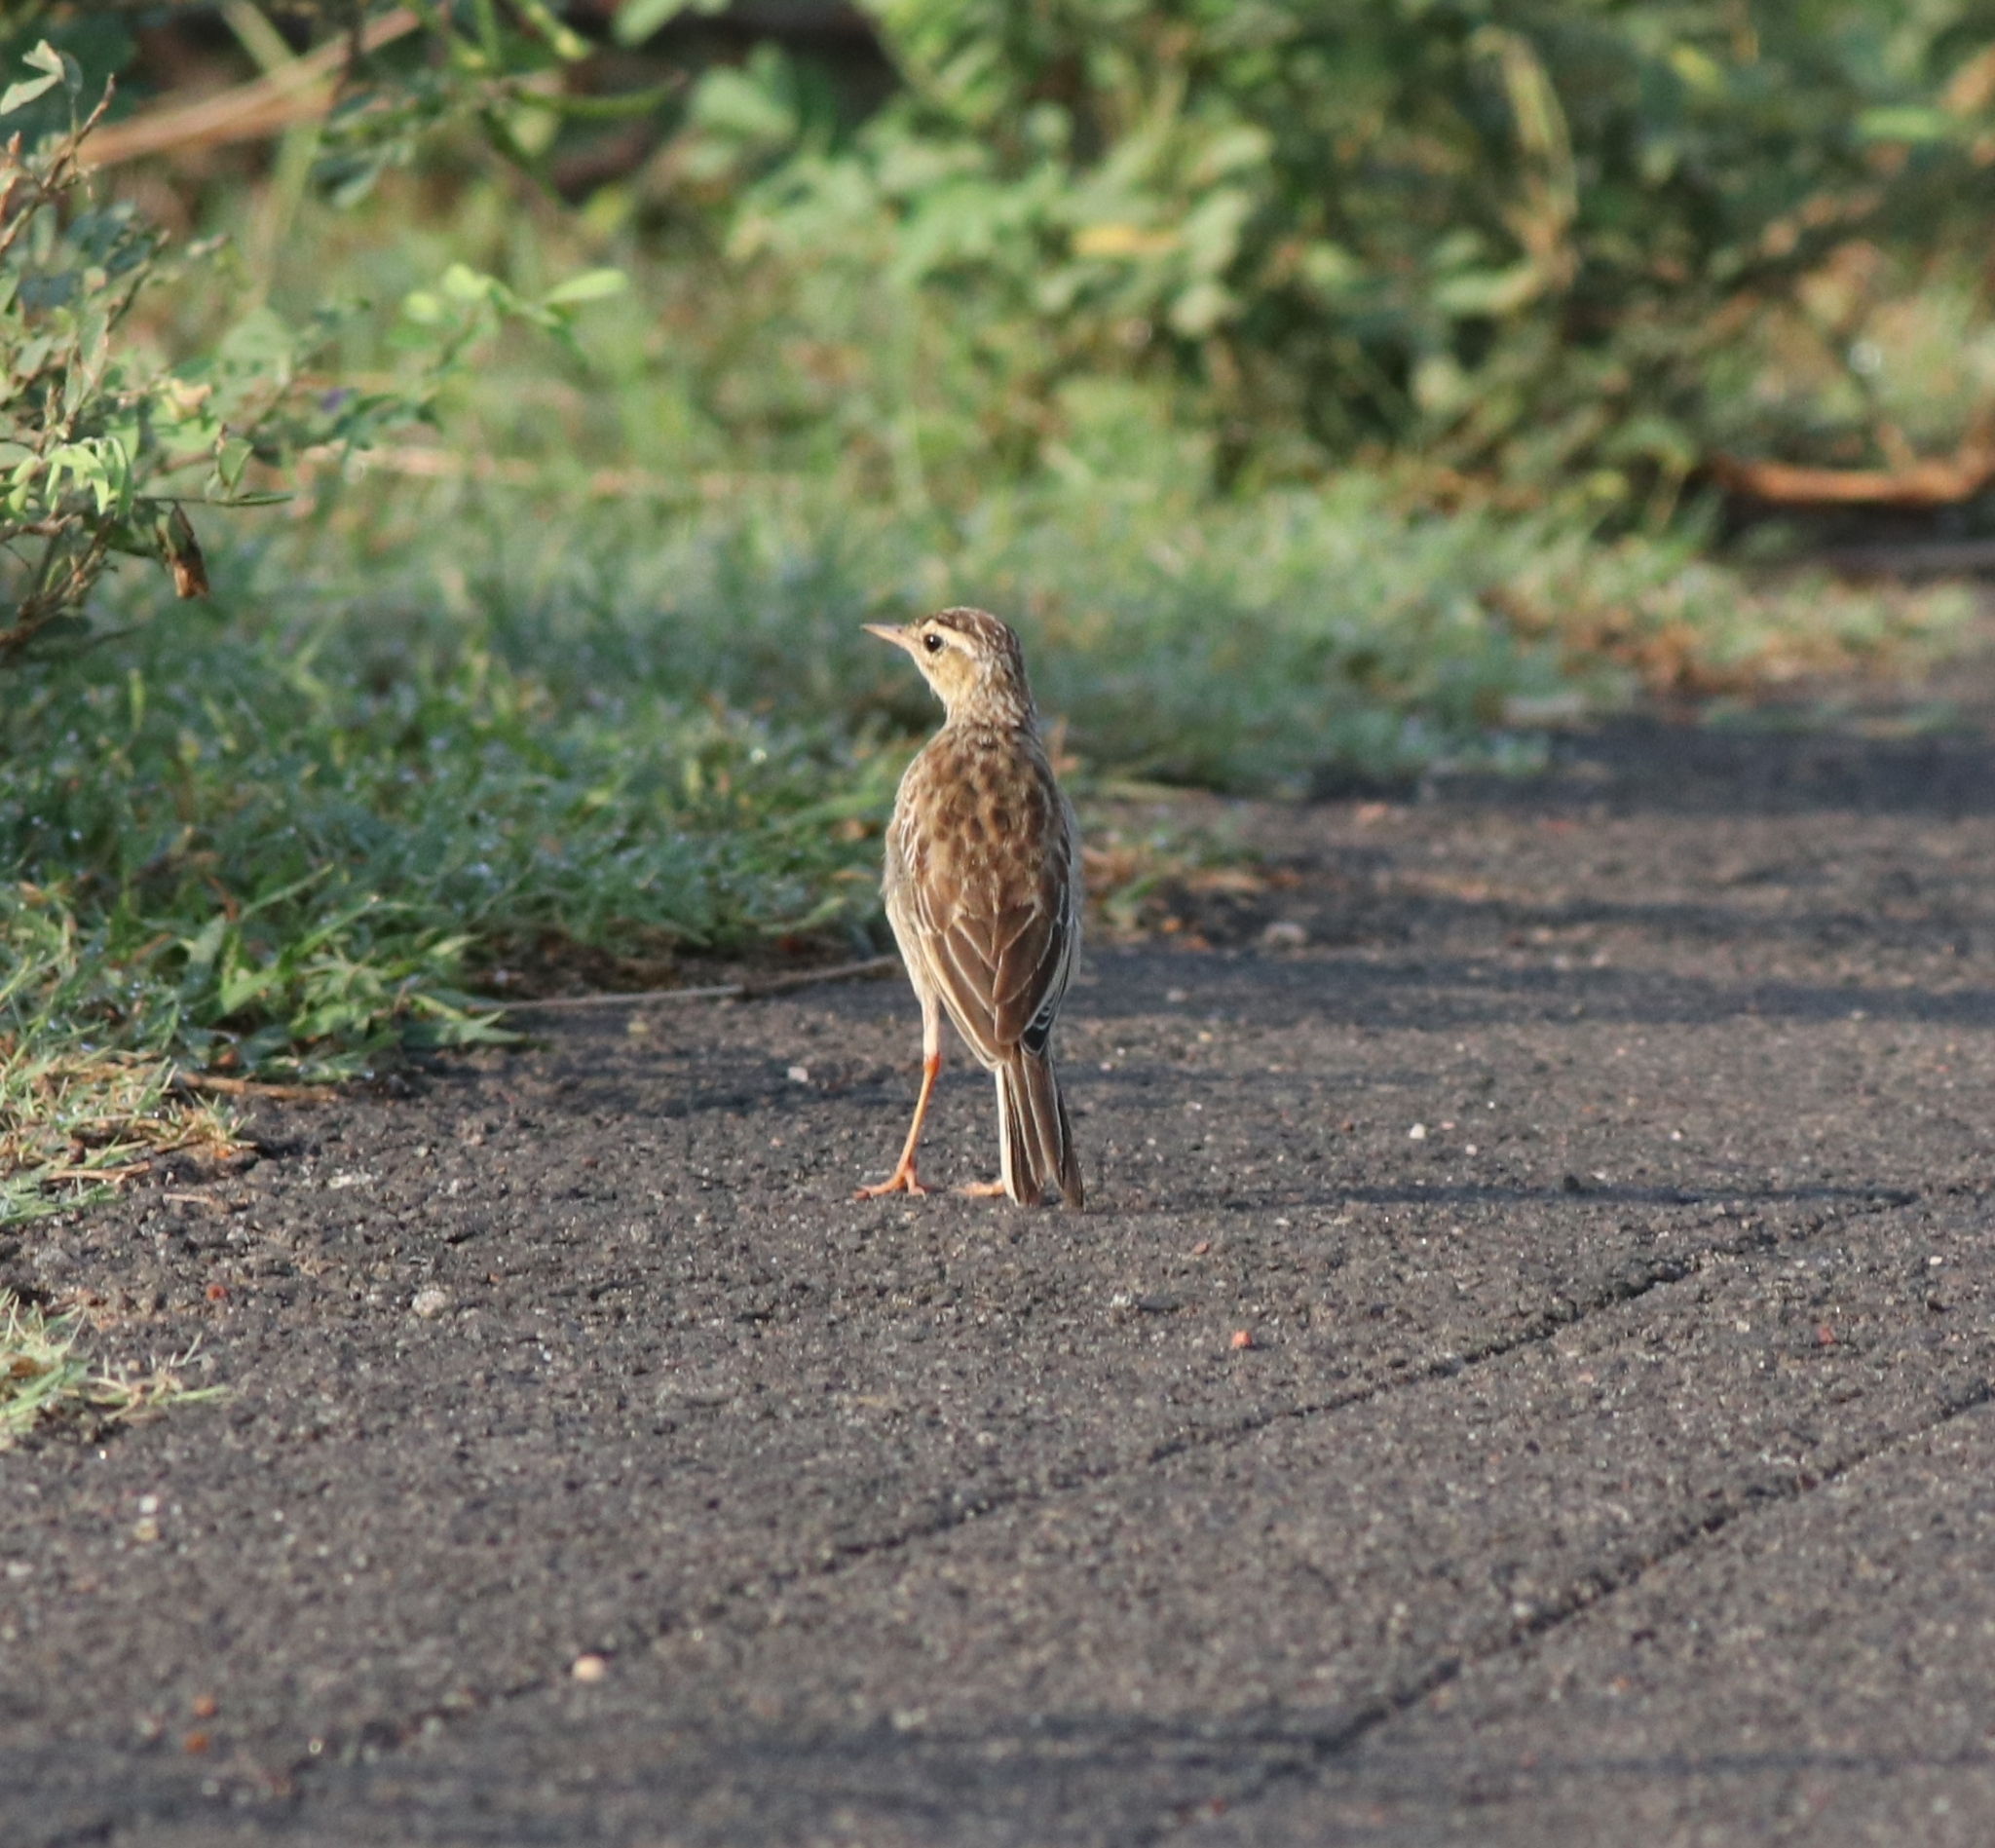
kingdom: Animalia
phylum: Chordata
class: Aves
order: Passeriformes
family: Motacillidae
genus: Anthus
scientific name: Anthus rufulus
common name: Paddyfield pipit
